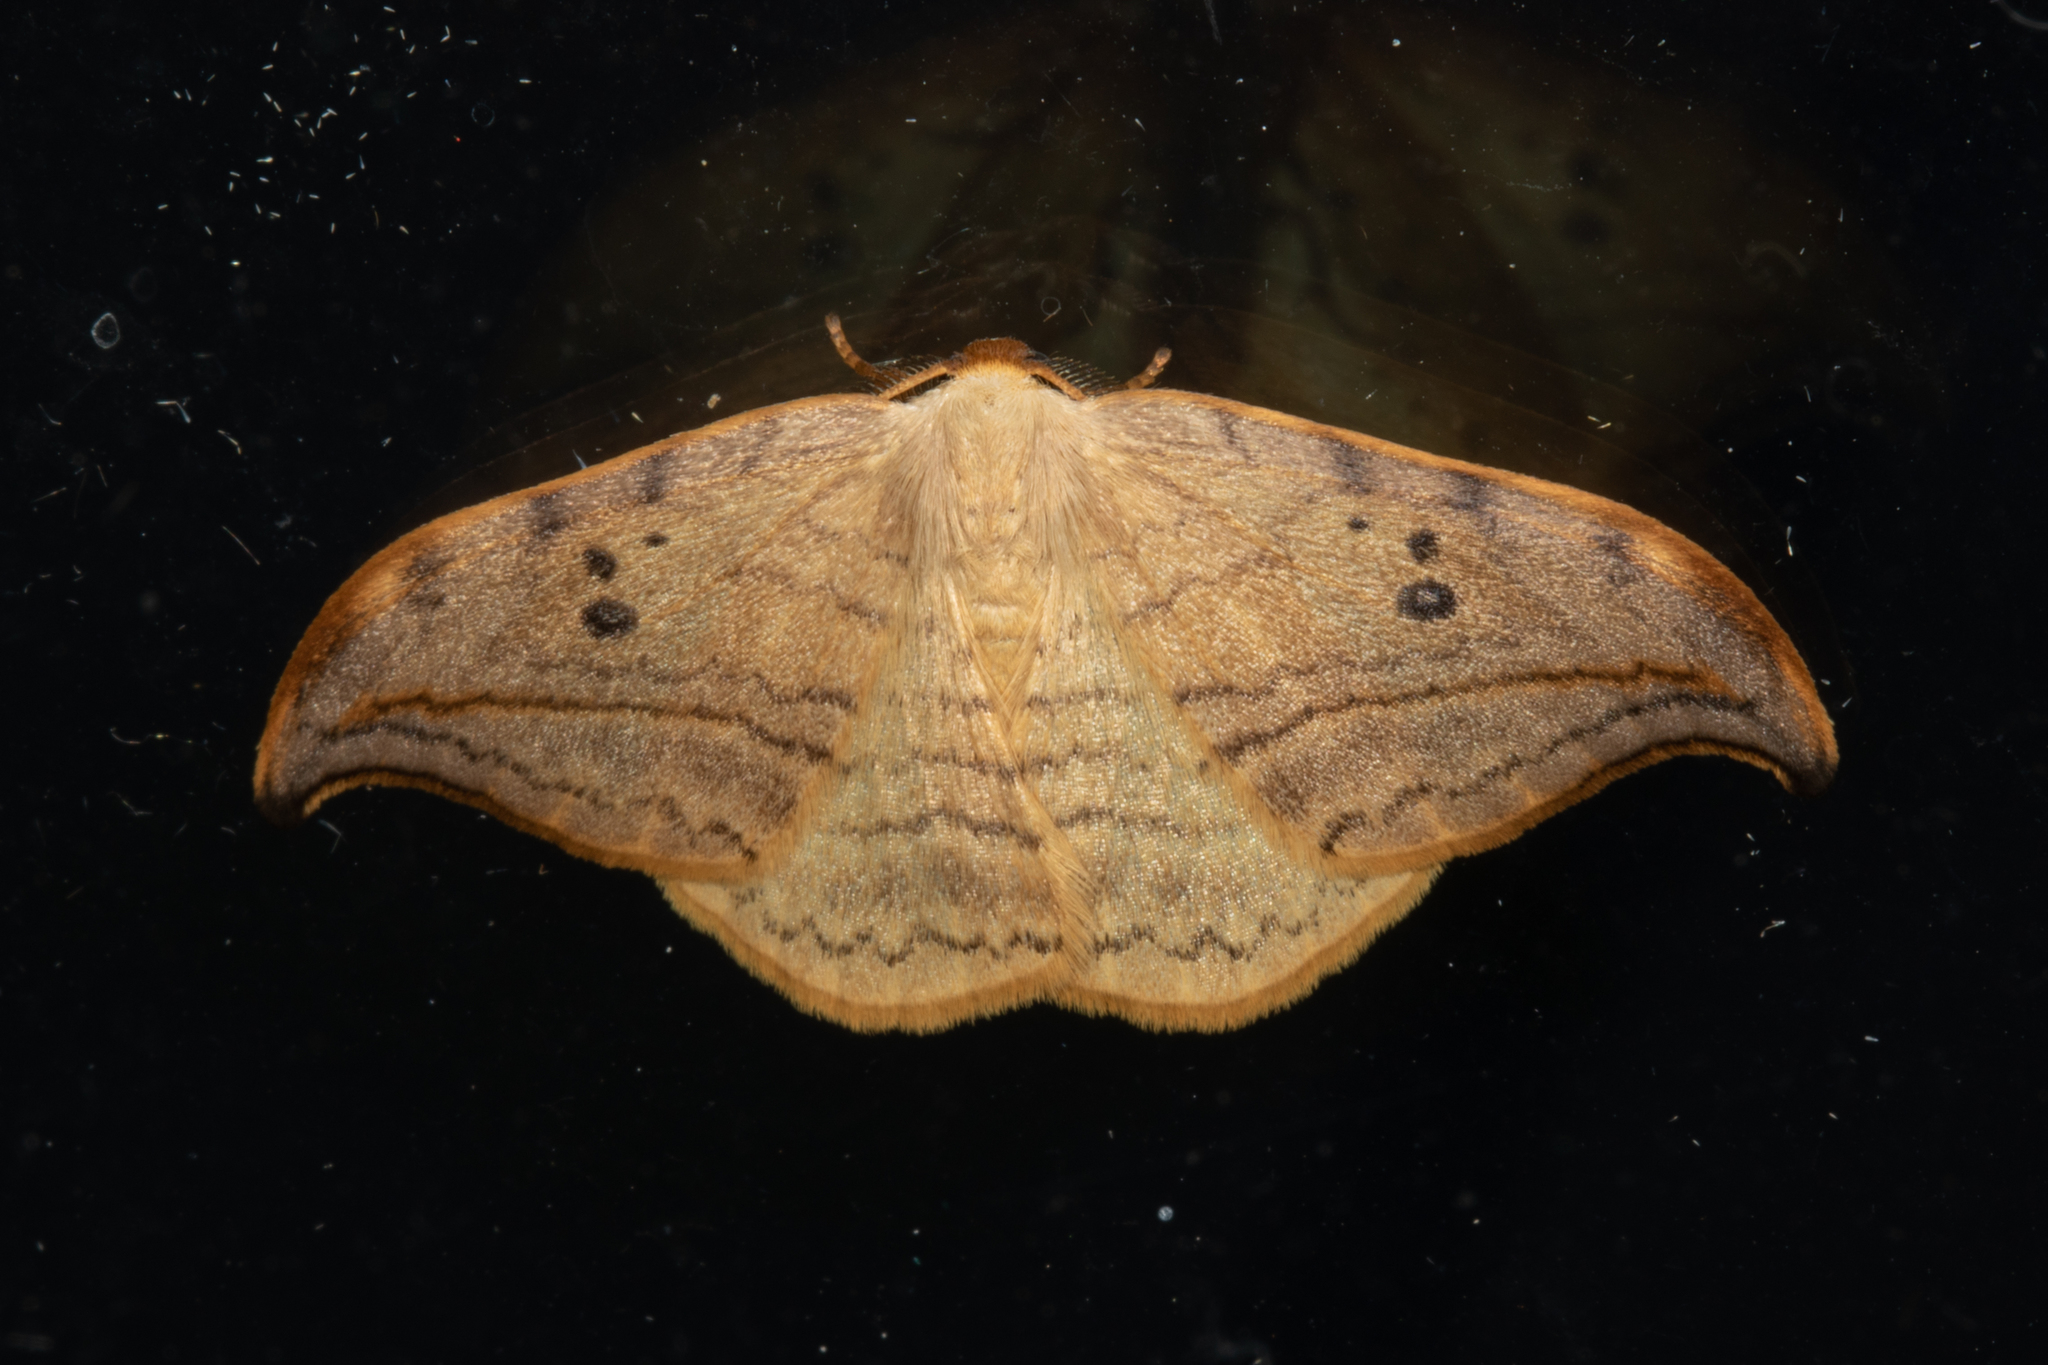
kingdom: Animalia
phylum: Arthropoda
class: Insecta
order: Lepidoptera
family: Drepanidae
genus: Drepana
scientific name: Drepana arcuata
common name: Arched hooktip moth
